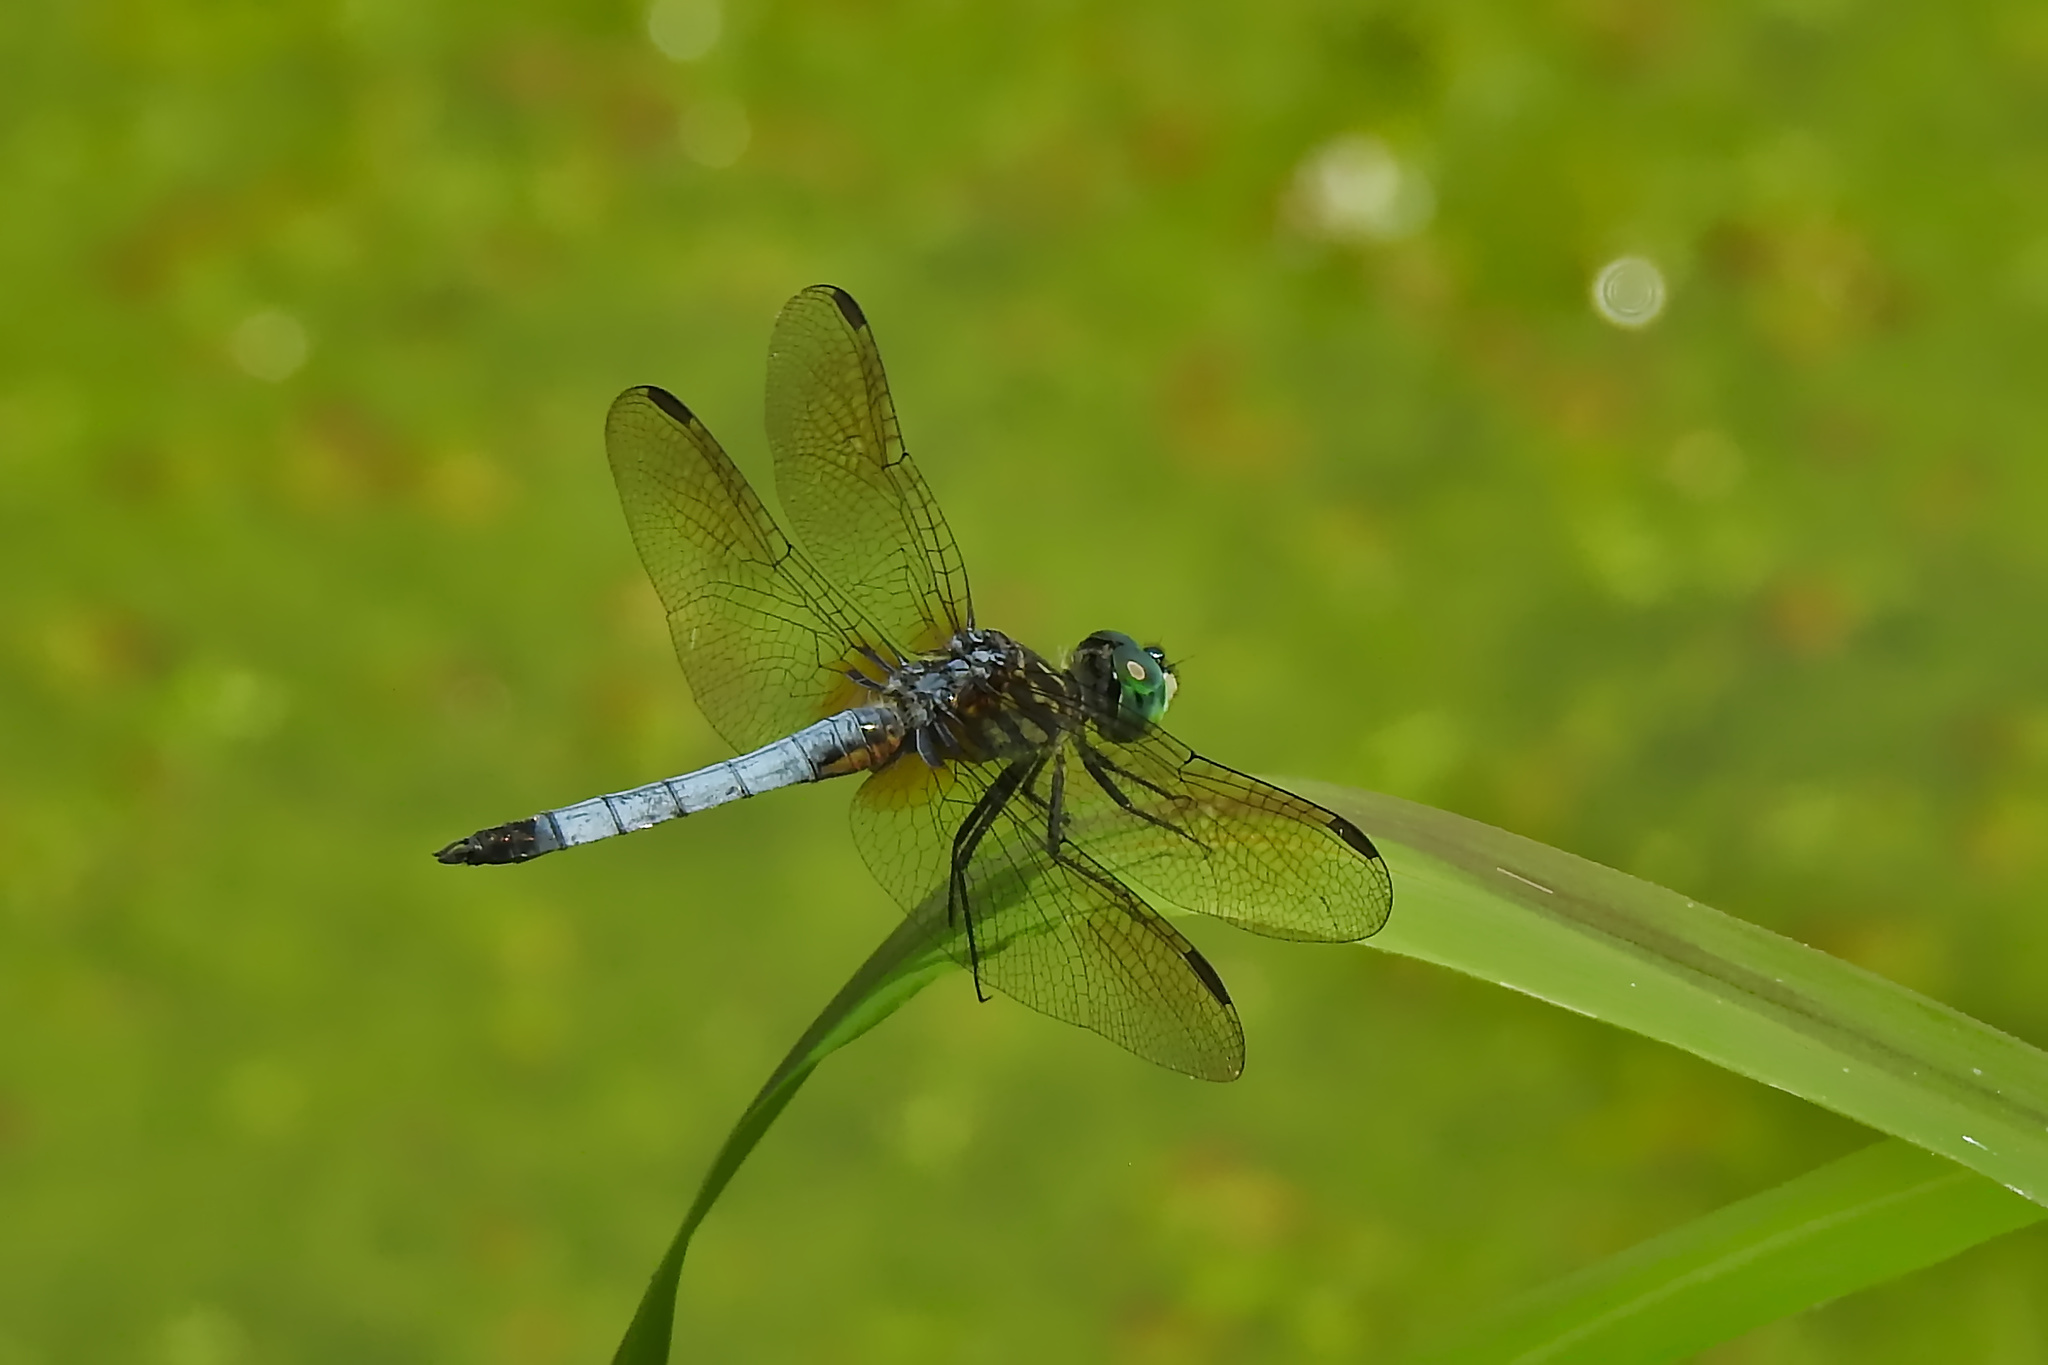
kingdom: Animalia
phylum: Arthropoda
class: Insecta
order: Odonata
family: Libellulidae
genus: Pachydiplax
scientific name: Pachydiplax longipennis
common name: Blue dasher
